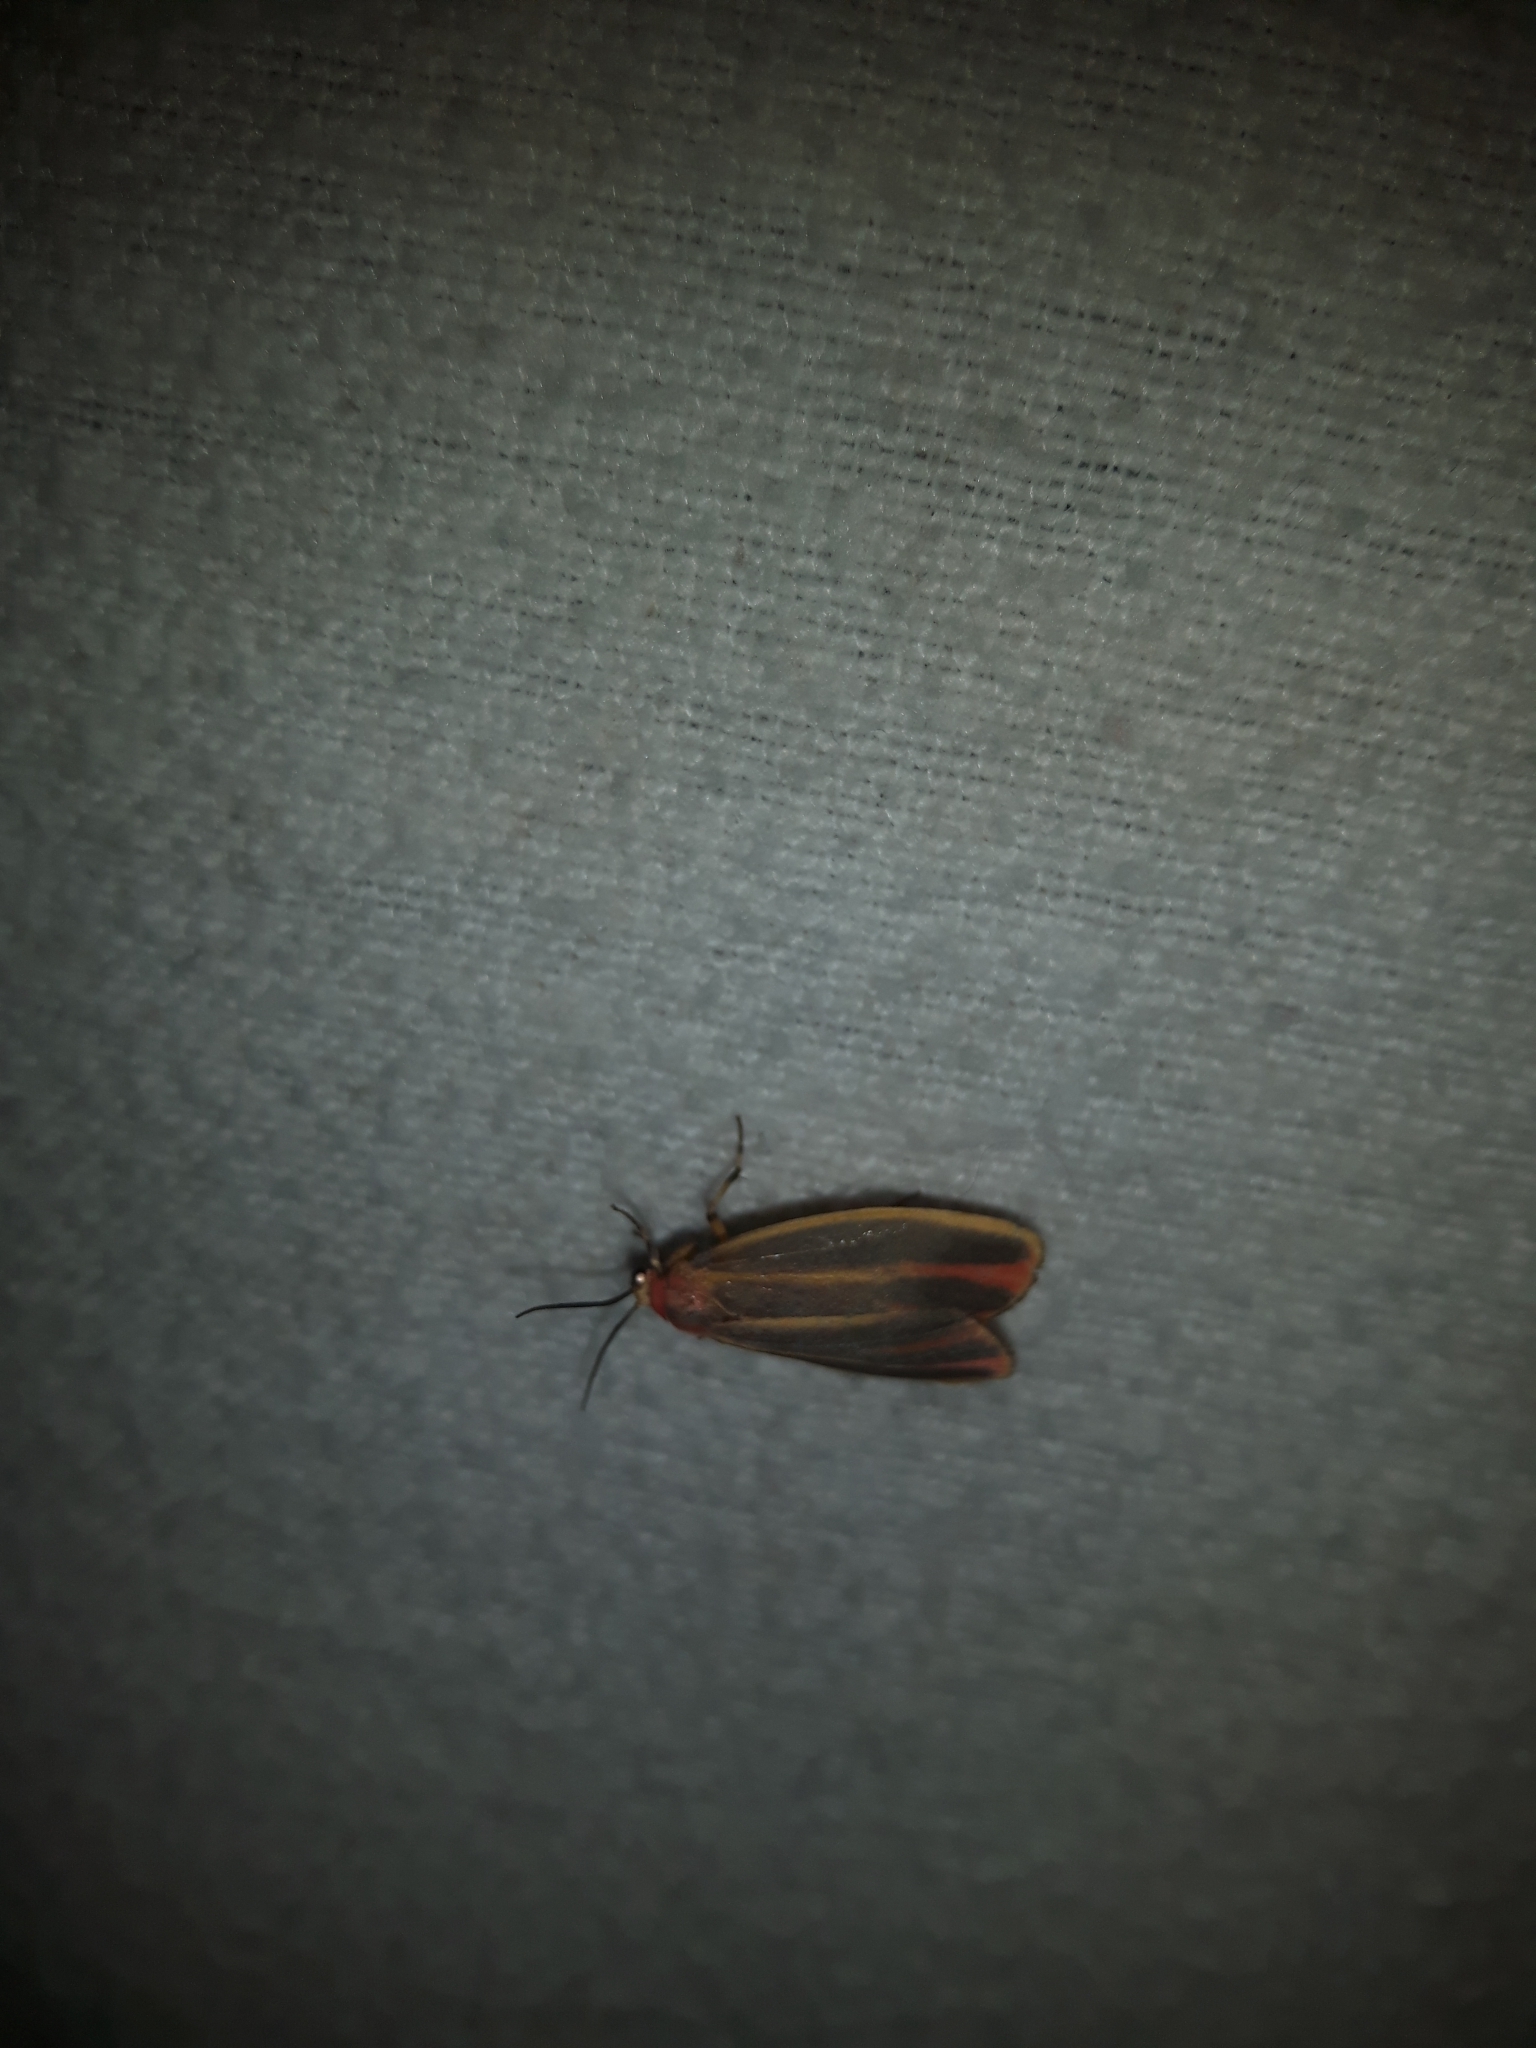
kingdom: Animalia
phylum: Arthropoda
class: Insecta
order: Lepidoptera
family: Erebidae
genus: Hypoprepia
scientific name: Hypoprepia fucosa
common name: Painted lichen moth
